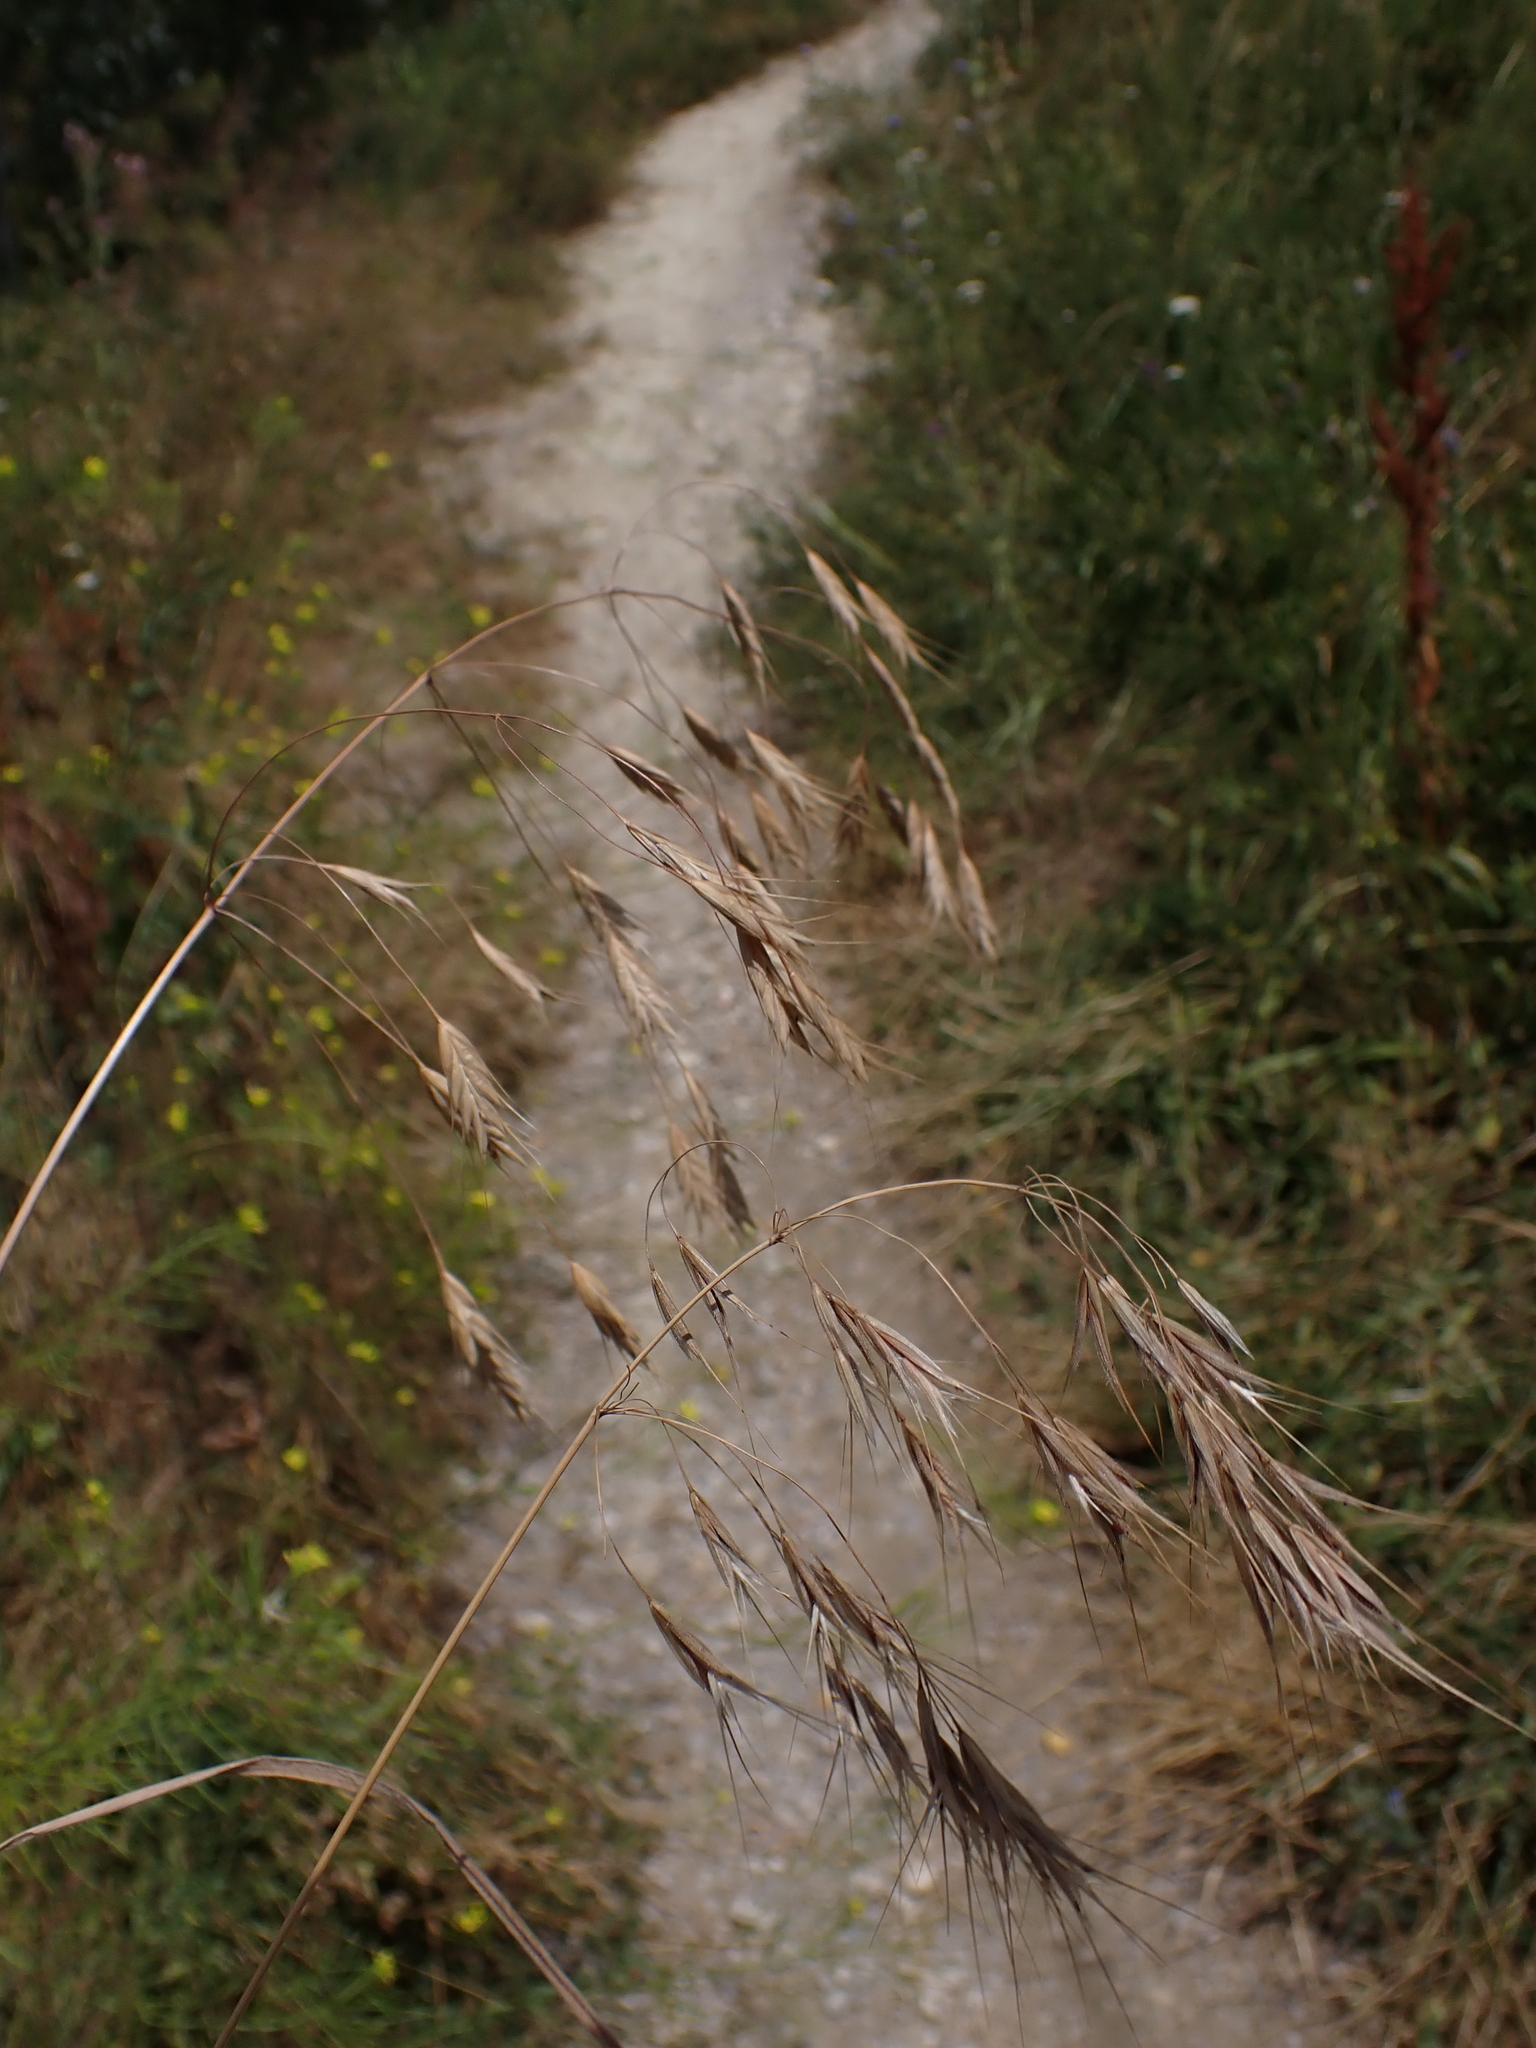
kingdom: Plantae
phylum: Tracheophyta
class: Liliopsida
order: Poales
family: Poaceae
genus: Bromus
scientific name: Bromus sterilis
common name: Poverty brome
